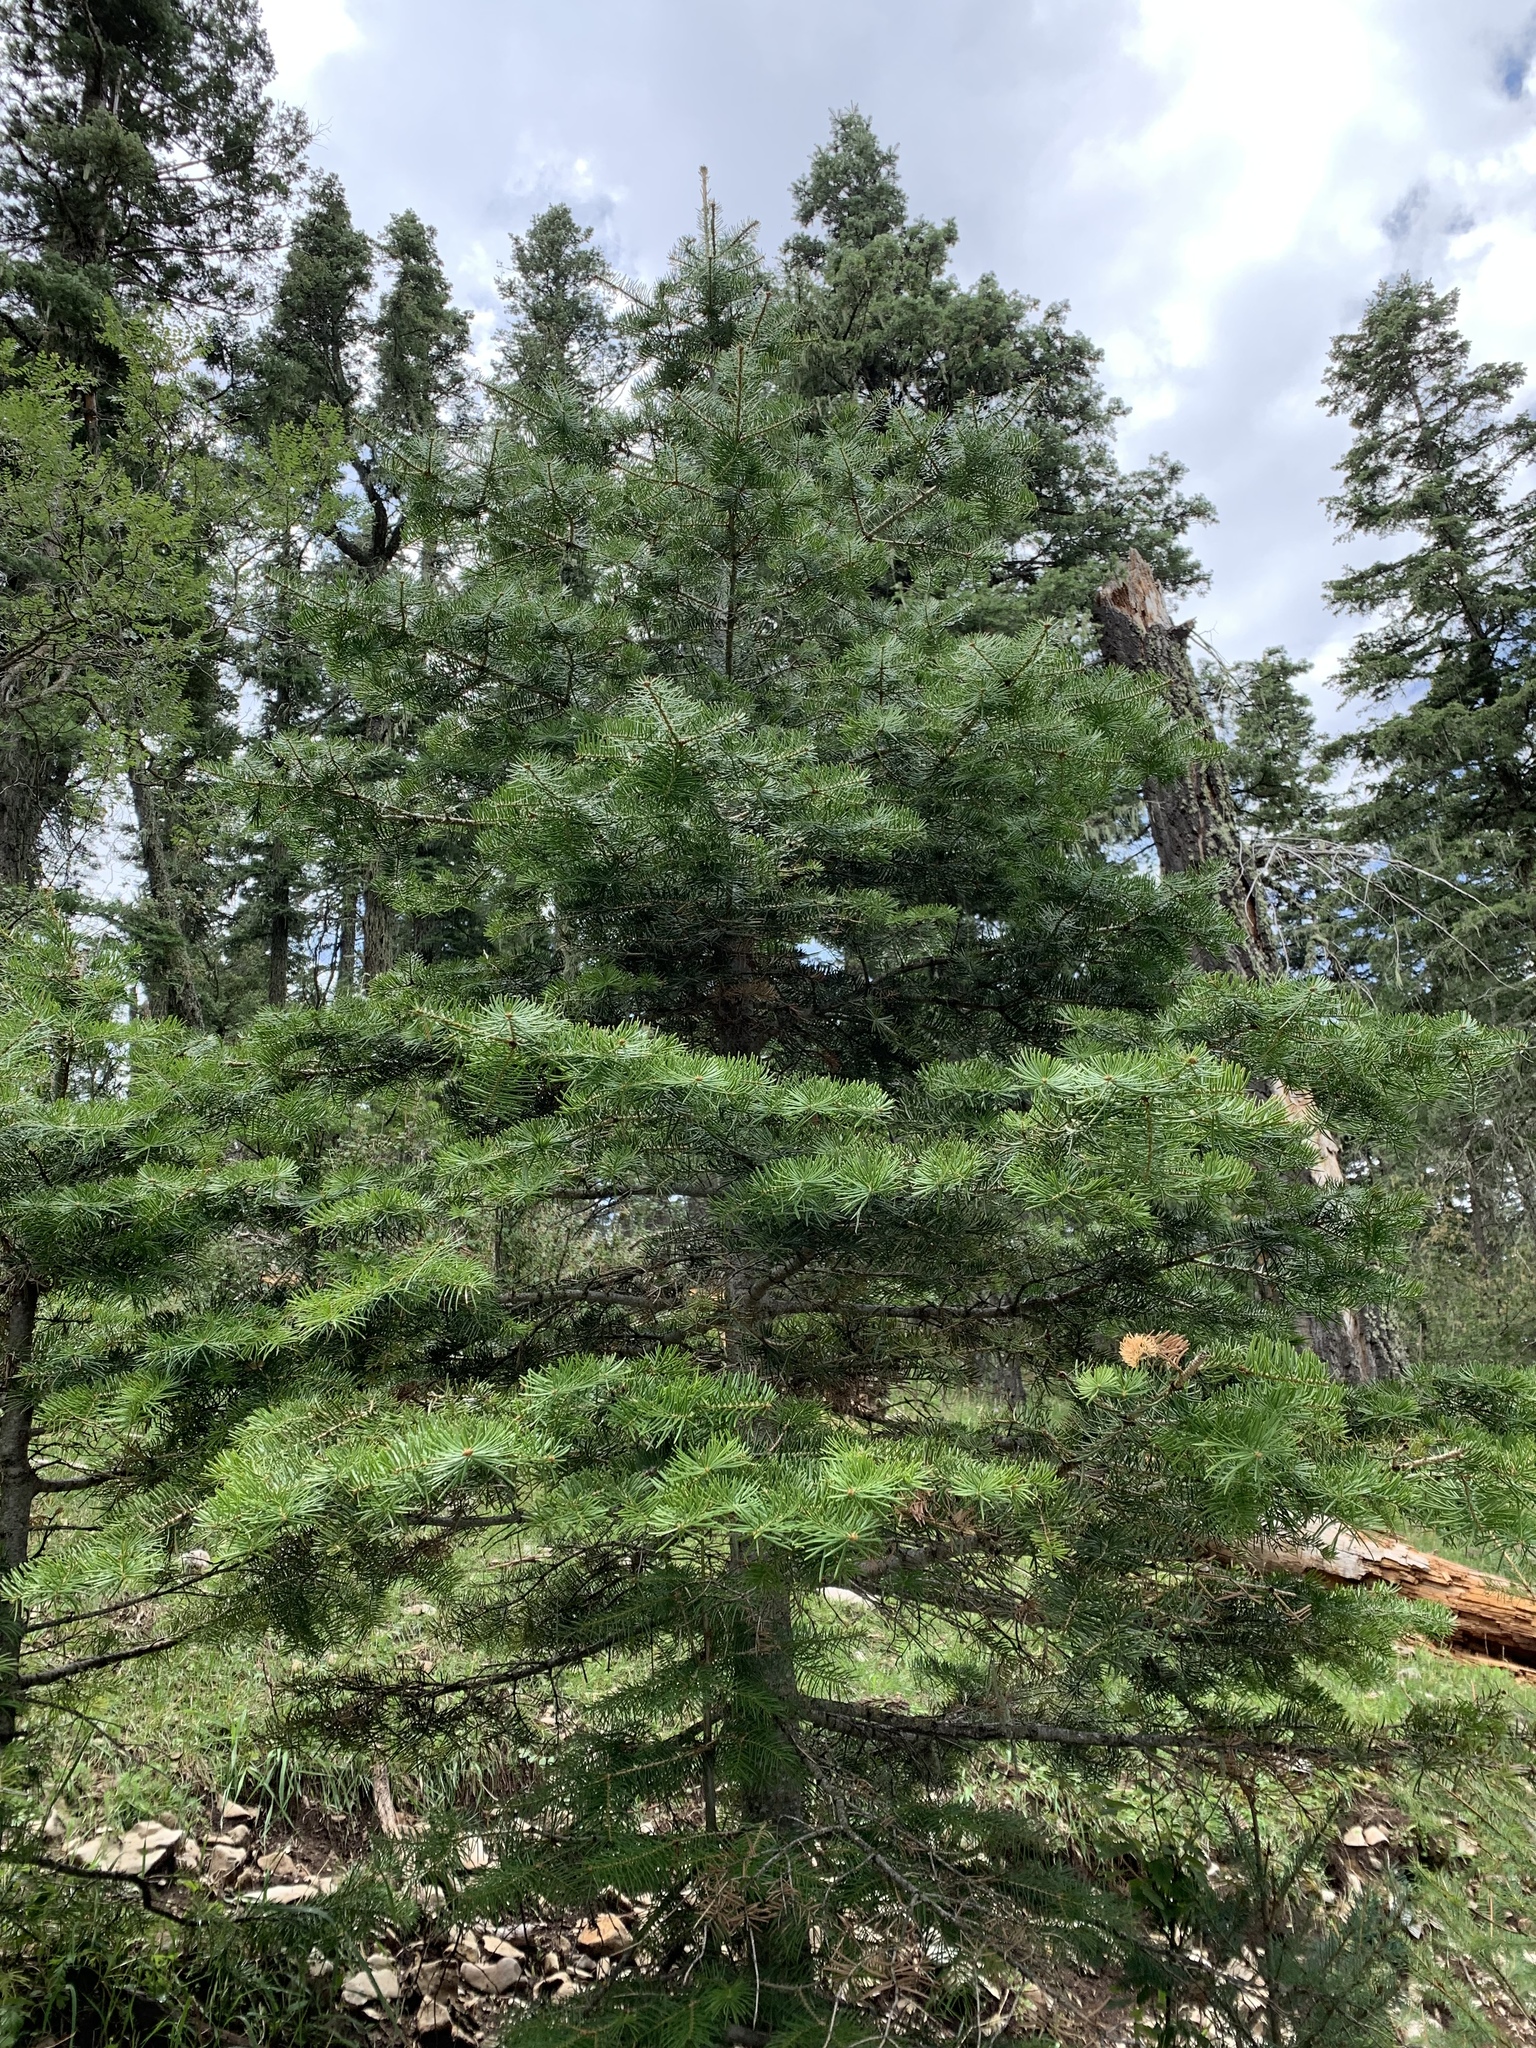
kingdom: Plantae
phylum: Tracheophyta
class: Pinopsida
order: Pinales
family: Pinaceae
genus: Abies
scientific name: Abies concolor
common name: Colorado fir
